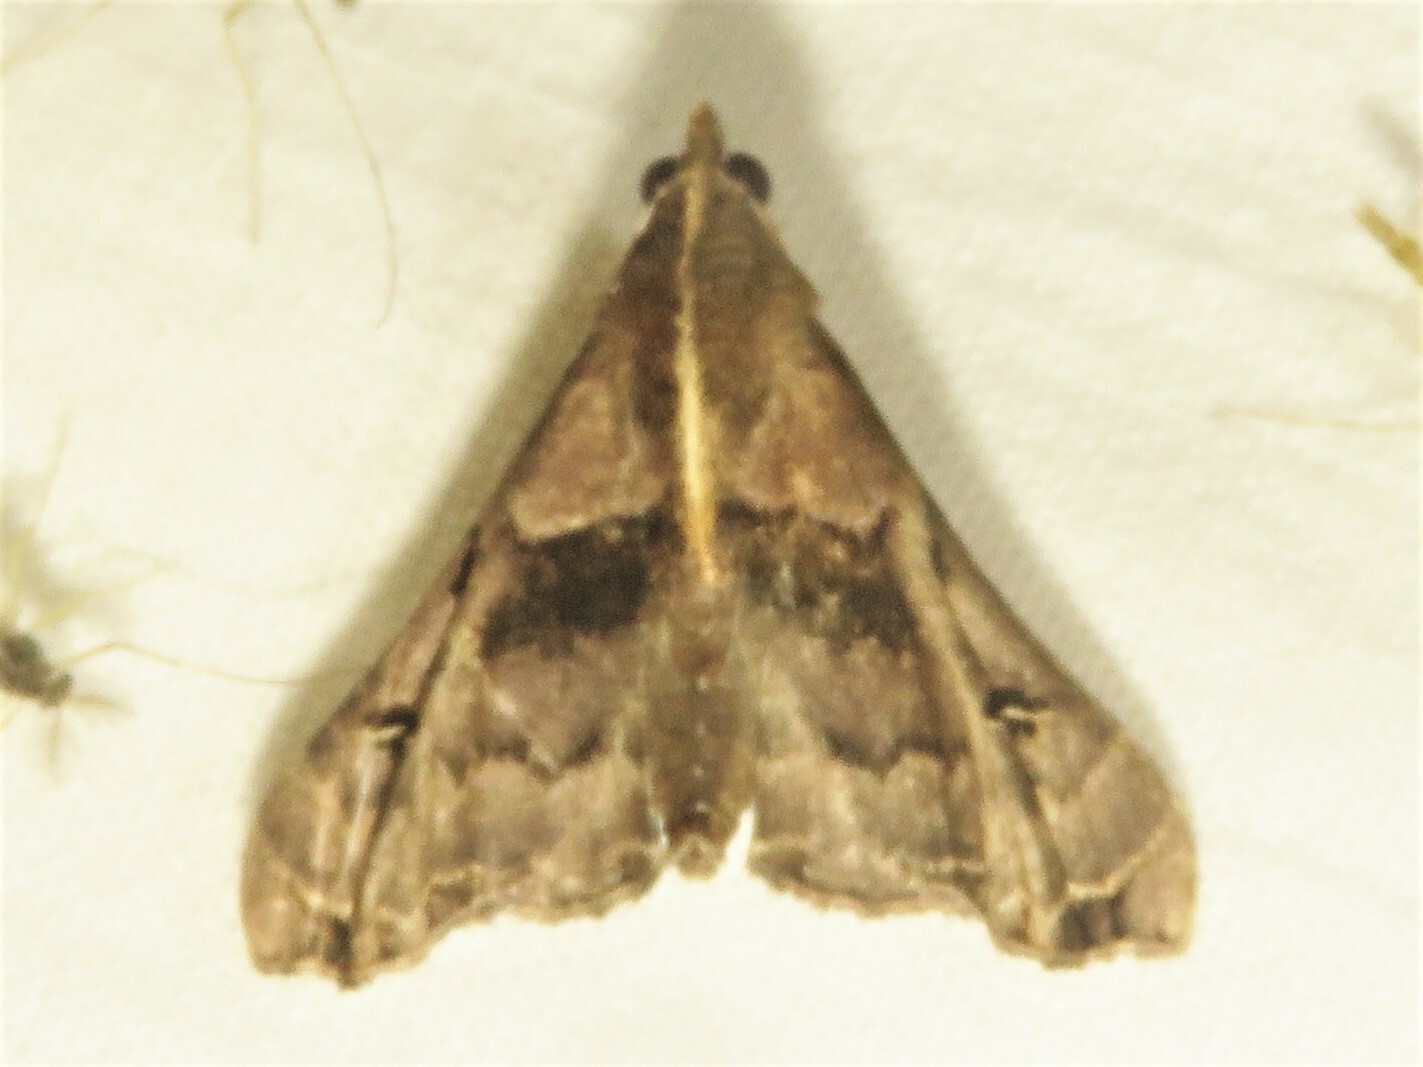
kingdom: Animalia
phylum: Arthropoda
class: Insecta
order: Lepidoptera
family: Erebidae
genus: Palthis
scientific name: Palthis asopialis
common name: Faint-spotted palthis moth
